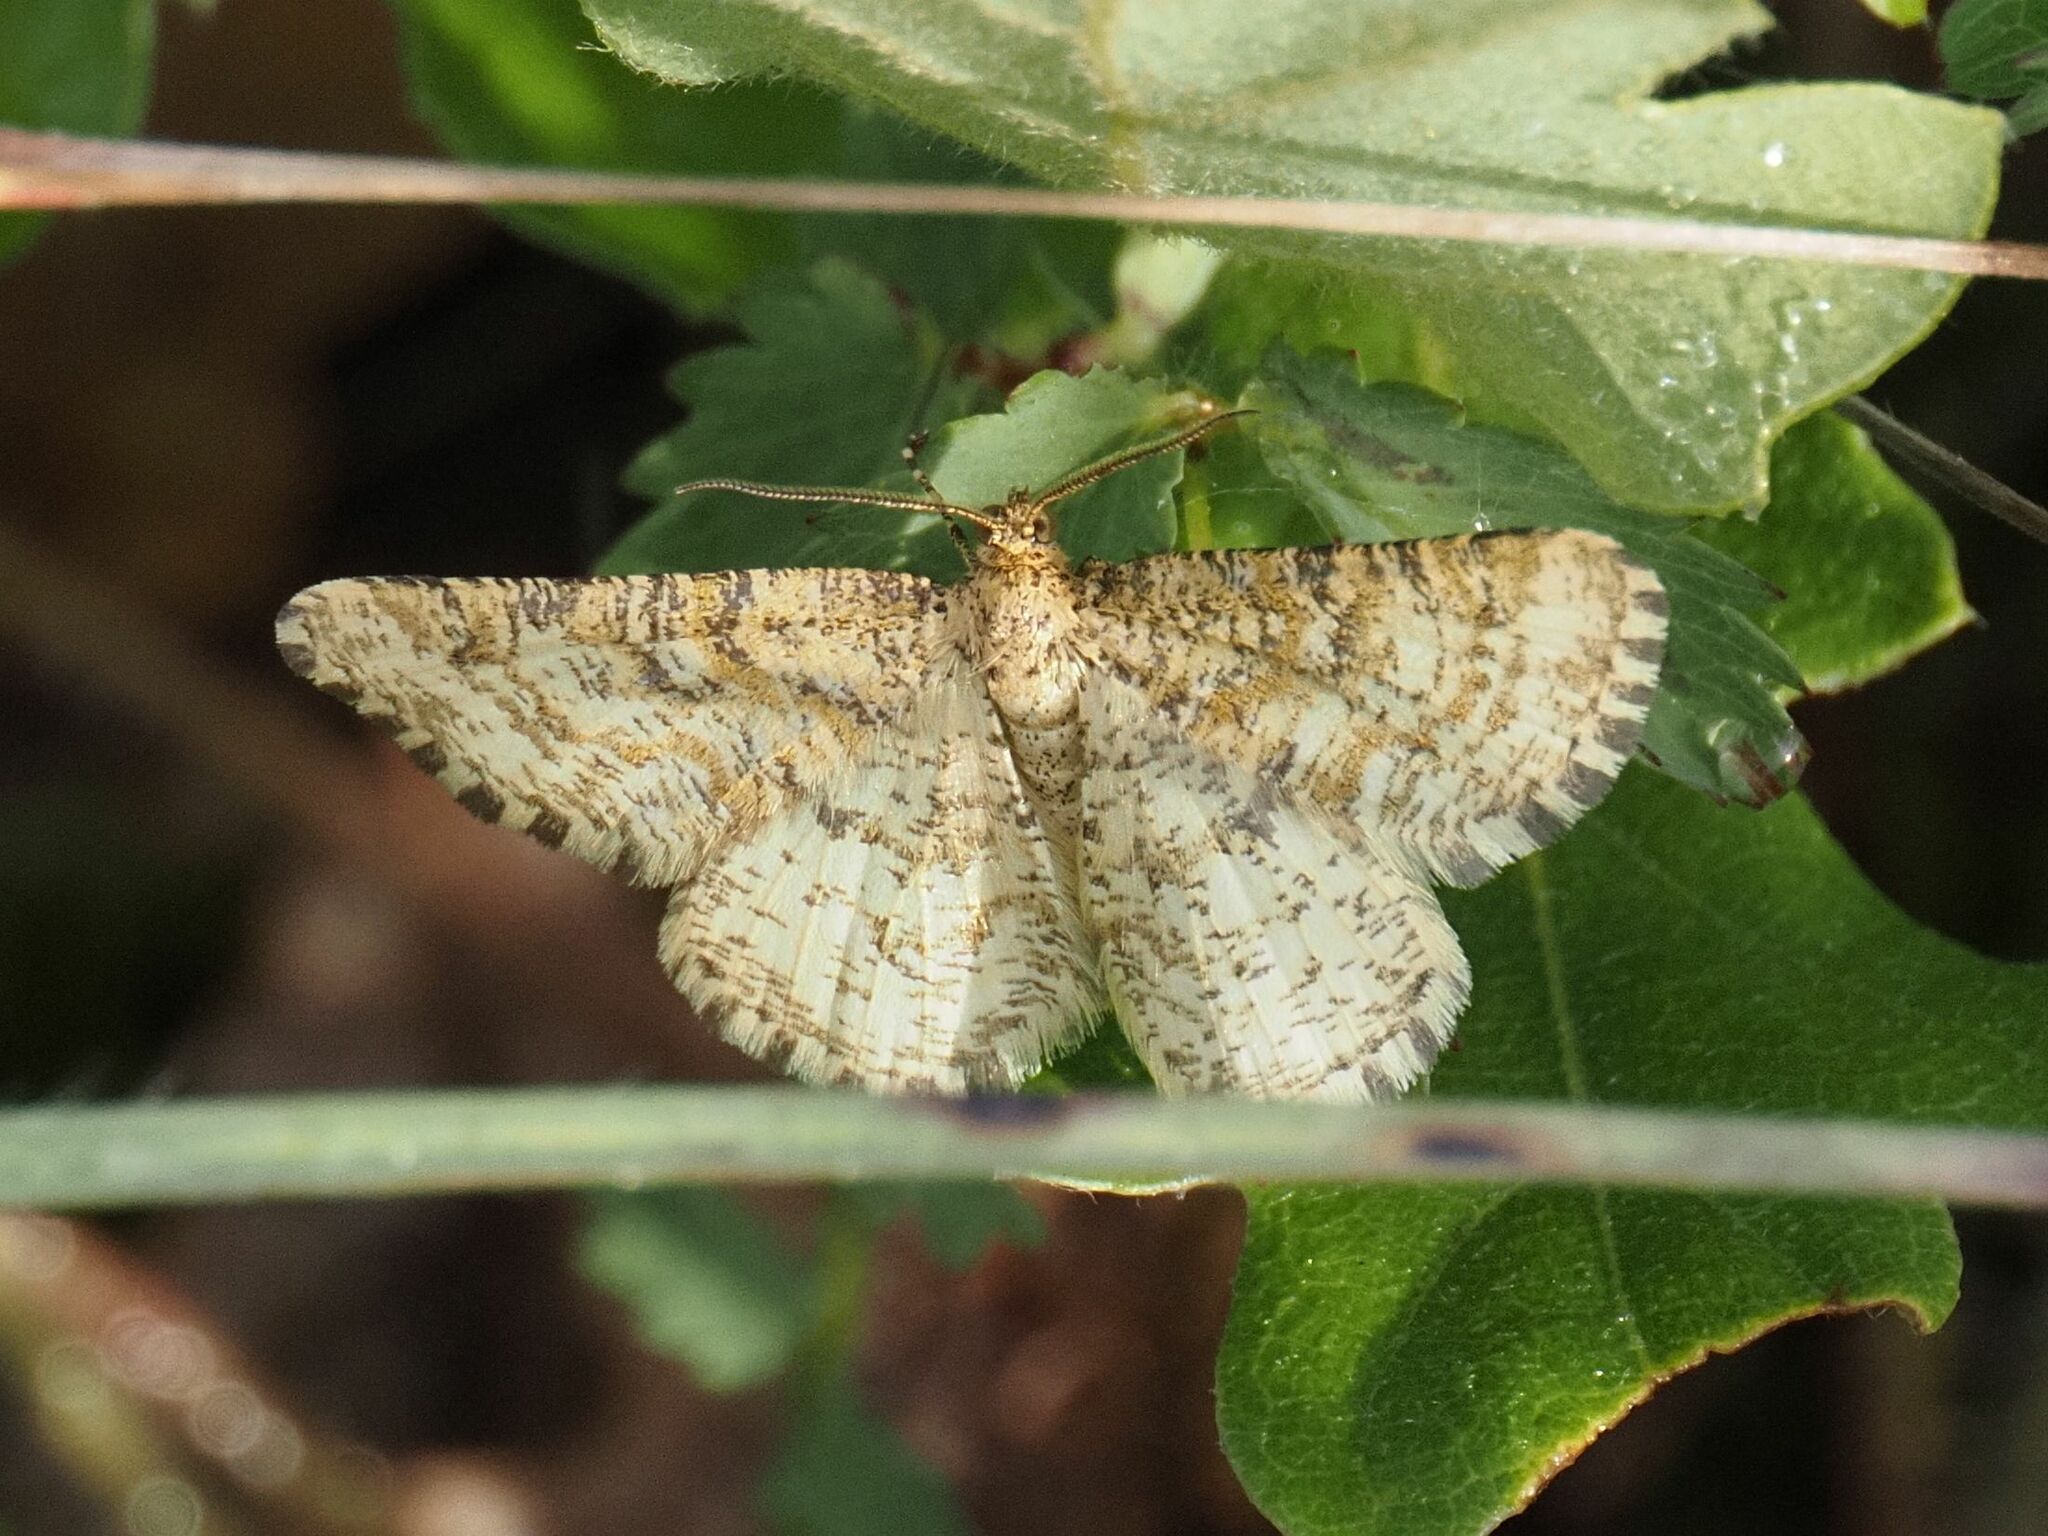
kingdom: Animalia
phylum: Arthropoda
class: Insecta
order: Lepidoptera
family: Geometridae
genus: Heliomata
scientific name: Heliomata glarearia
